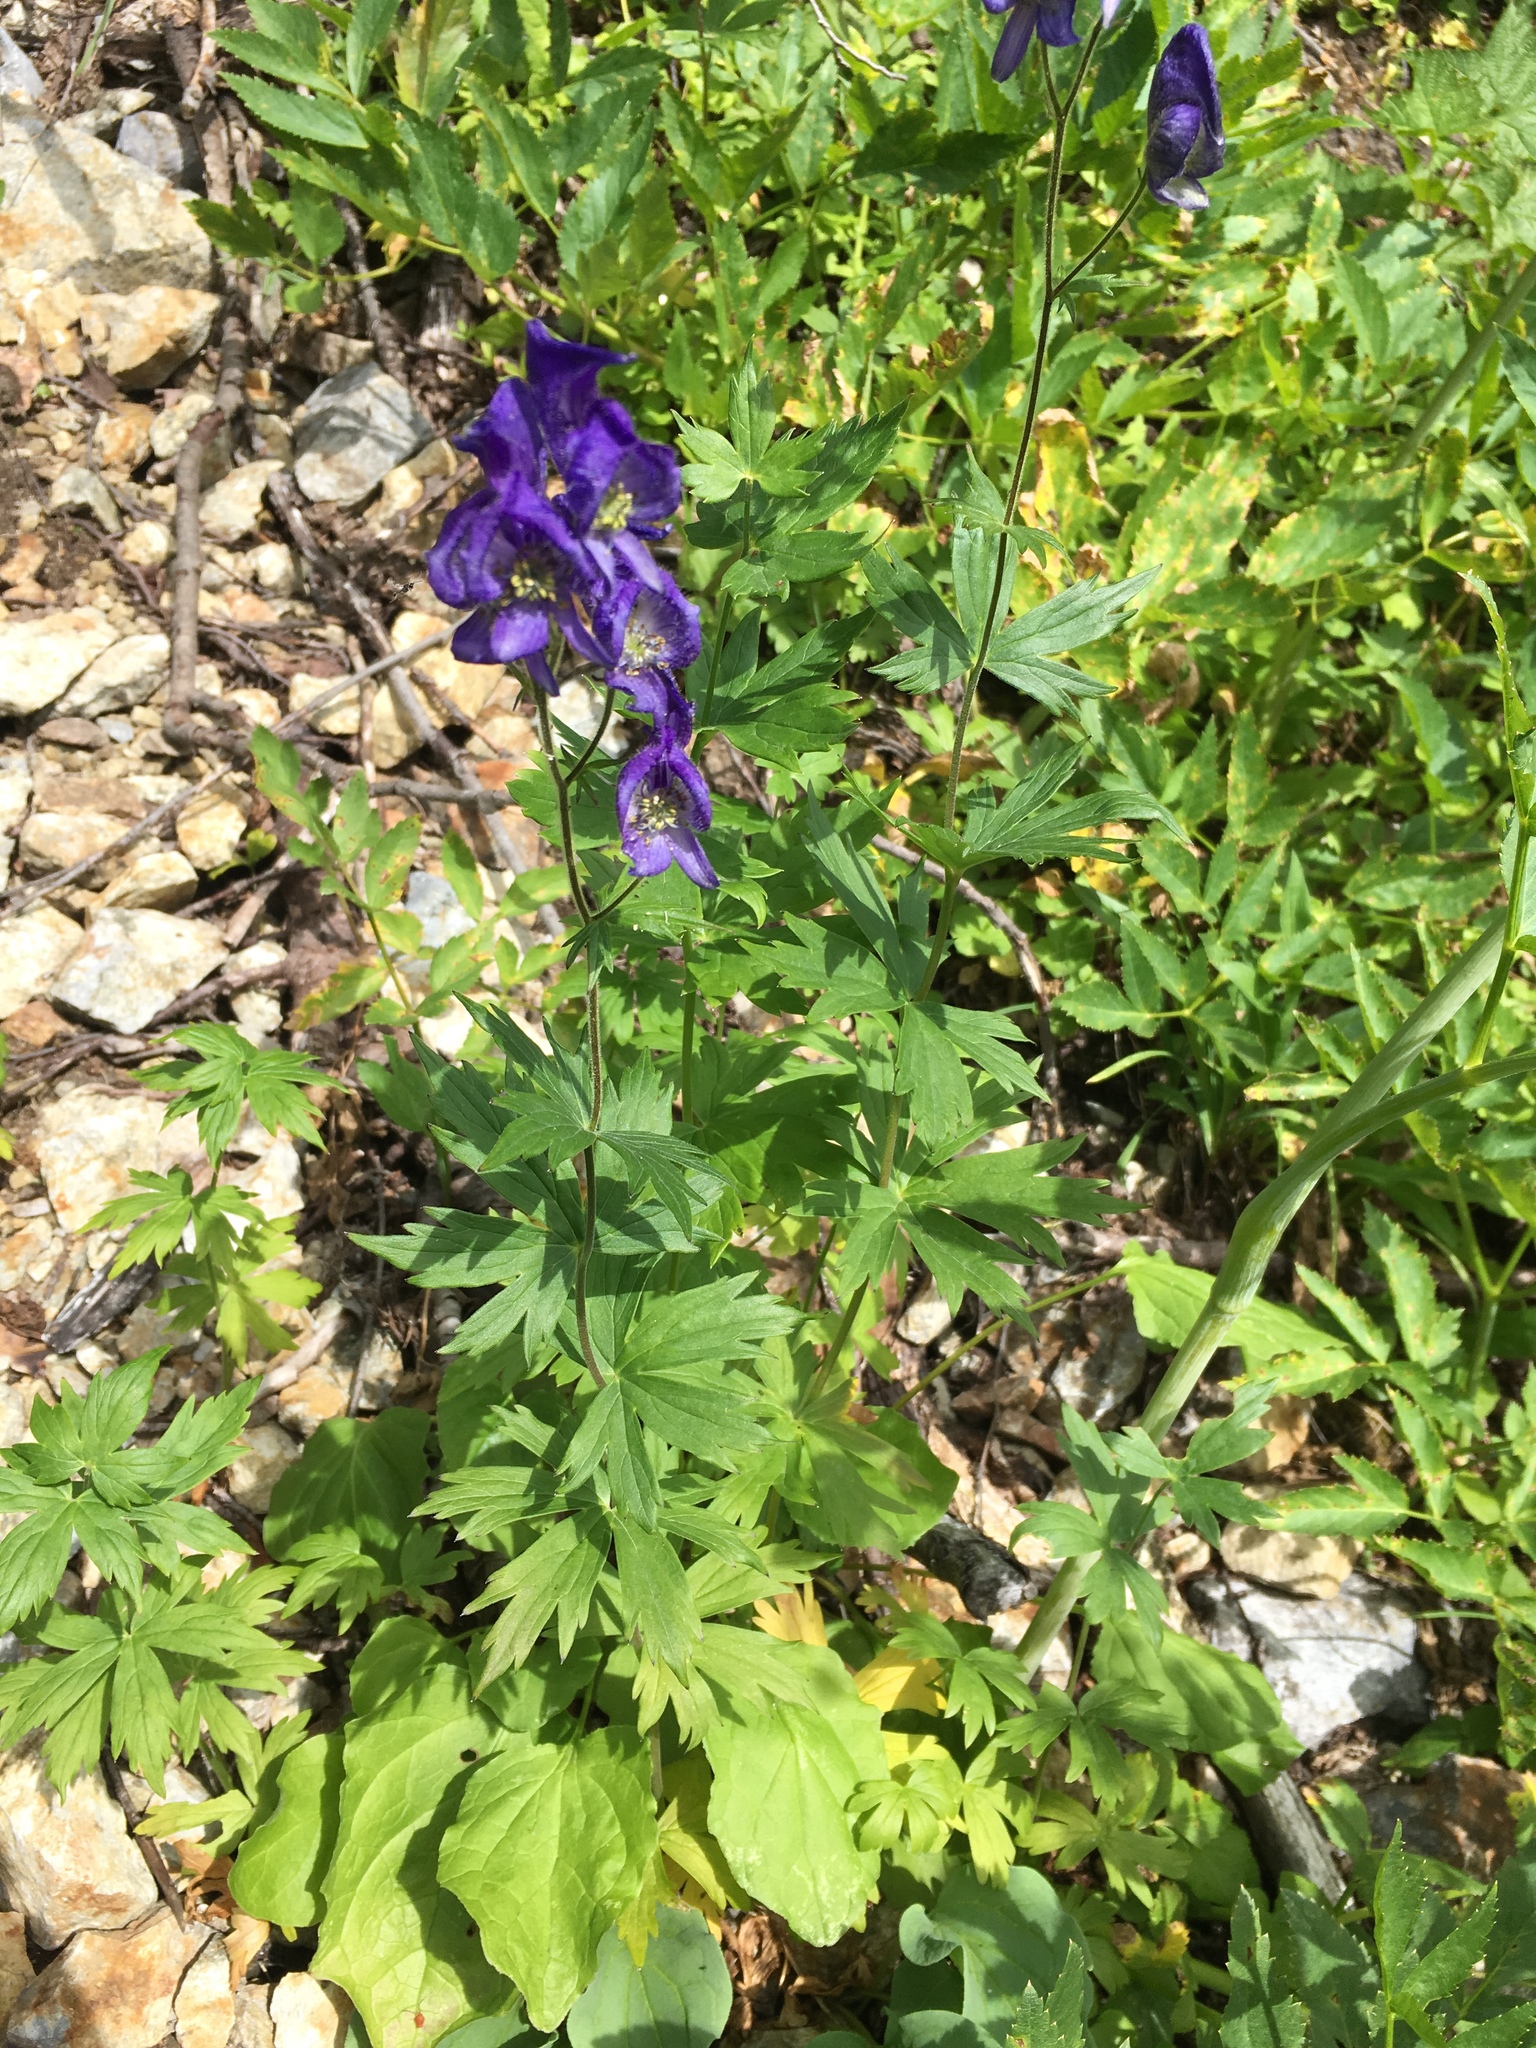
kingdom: Plantae
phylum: Tracheophyta
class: Magnoliopsida
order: Ranunculales
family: Ranunculaceae
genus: Aconitum
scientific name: Aconitum columbianum
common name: Columbia aconite
